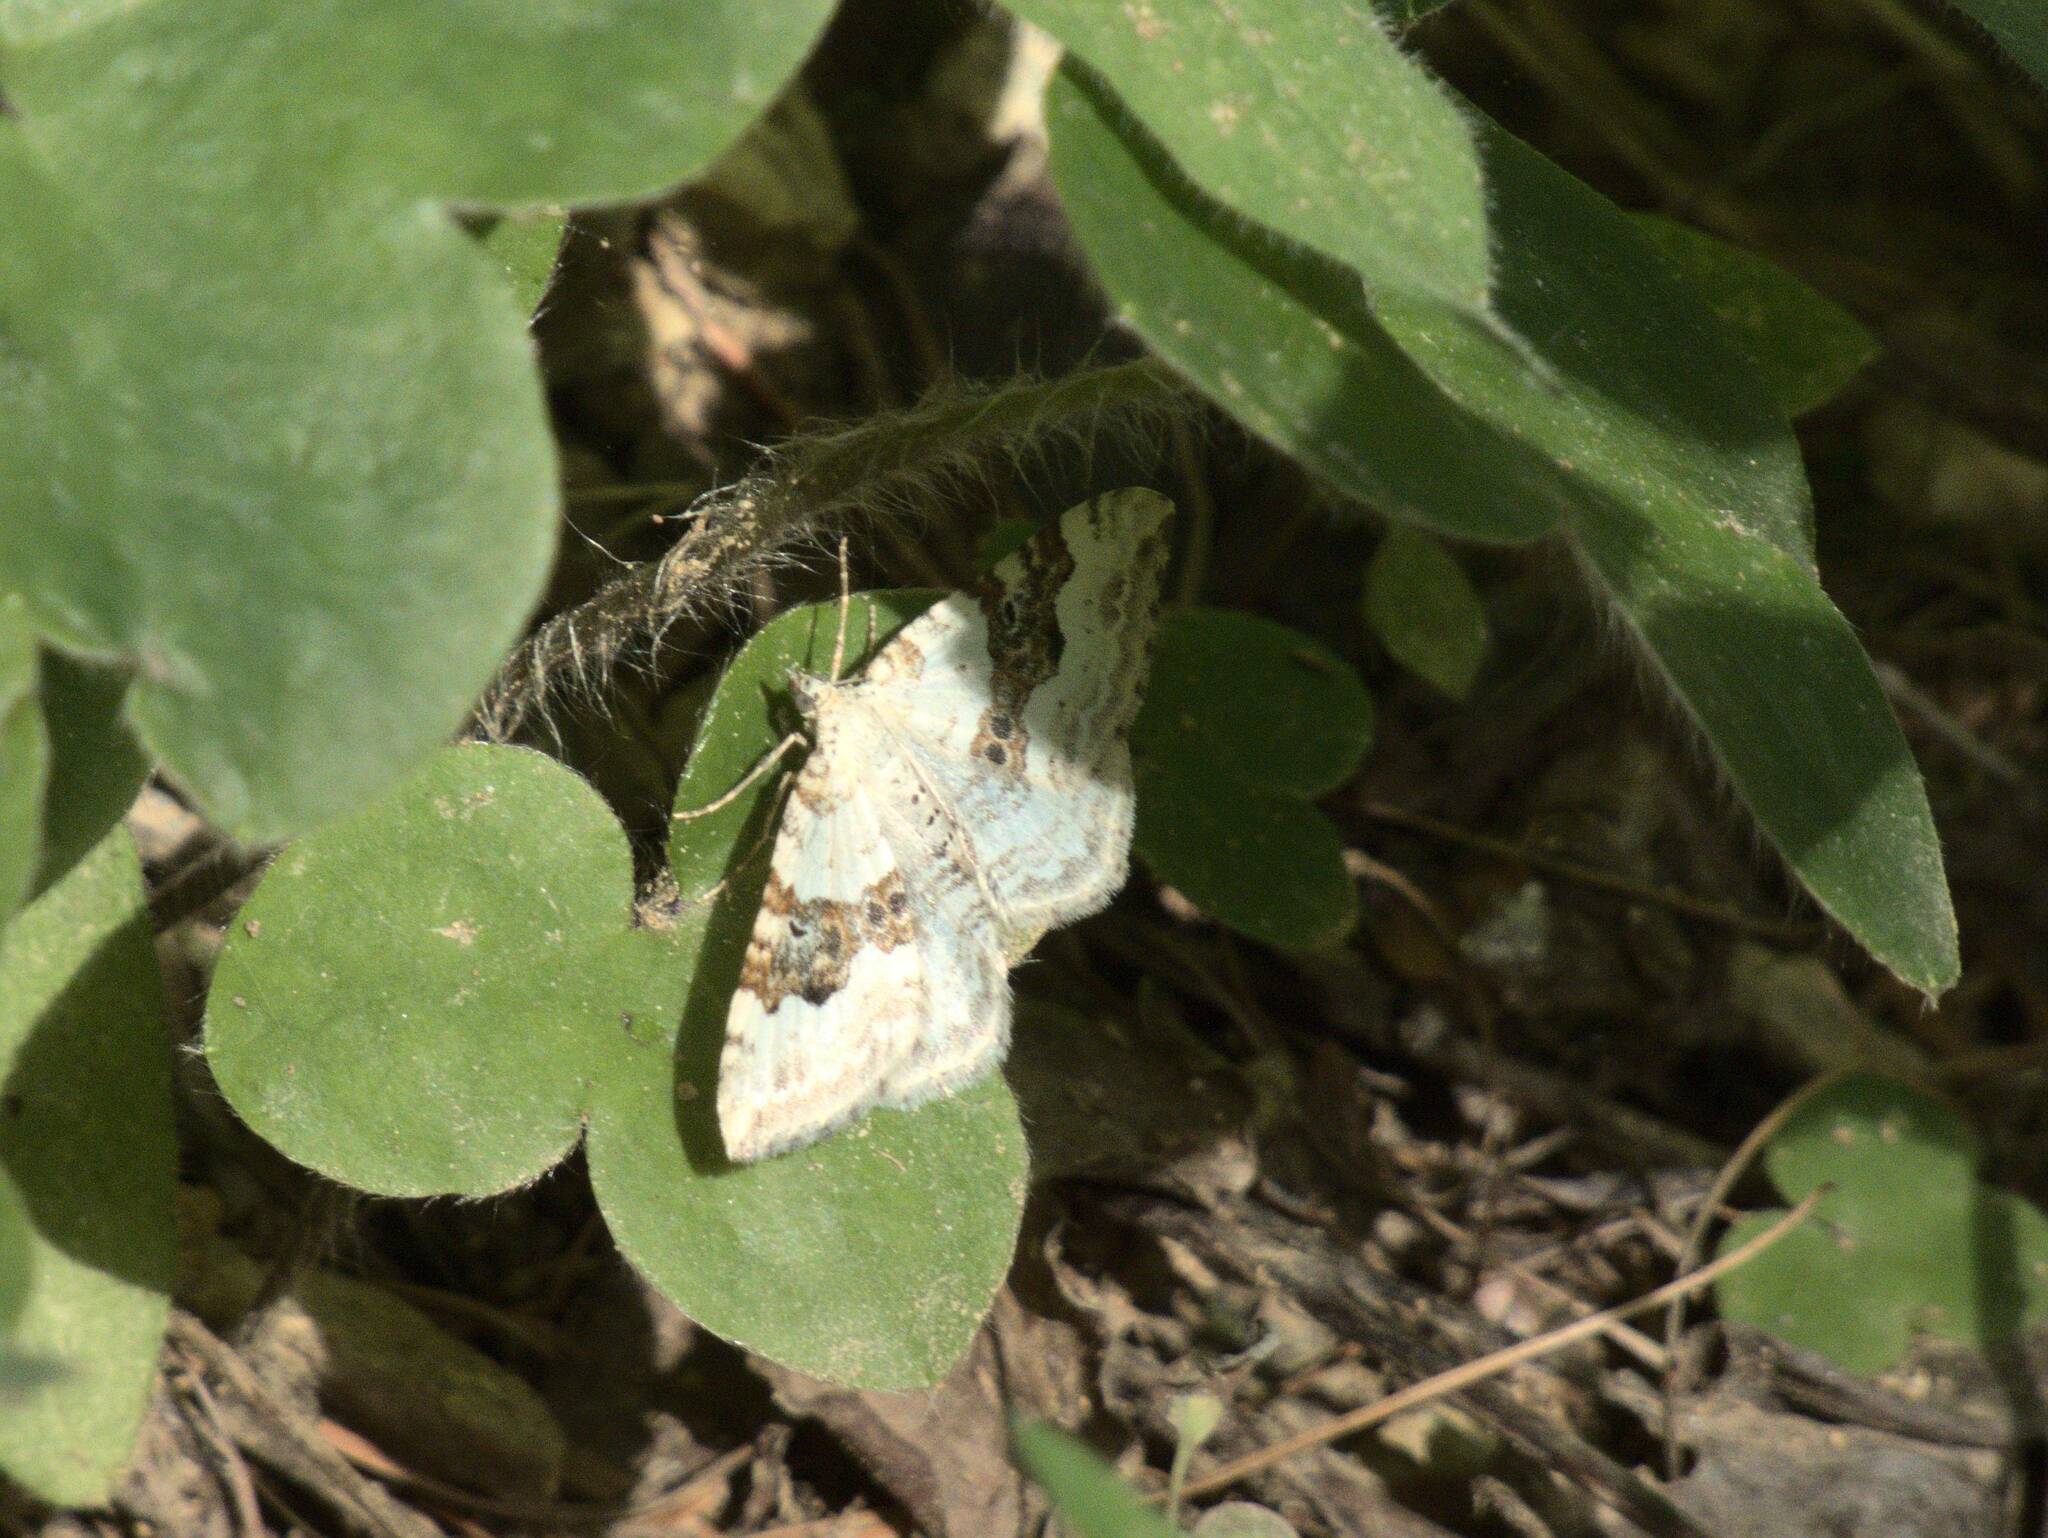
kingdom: Animalia
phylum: Arthropoda
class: Insecta
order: Lepidoptera
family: Geometridae
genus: Xanthorhoe
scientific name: Xanthorhoe montanata
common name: Silver-ground carpet
